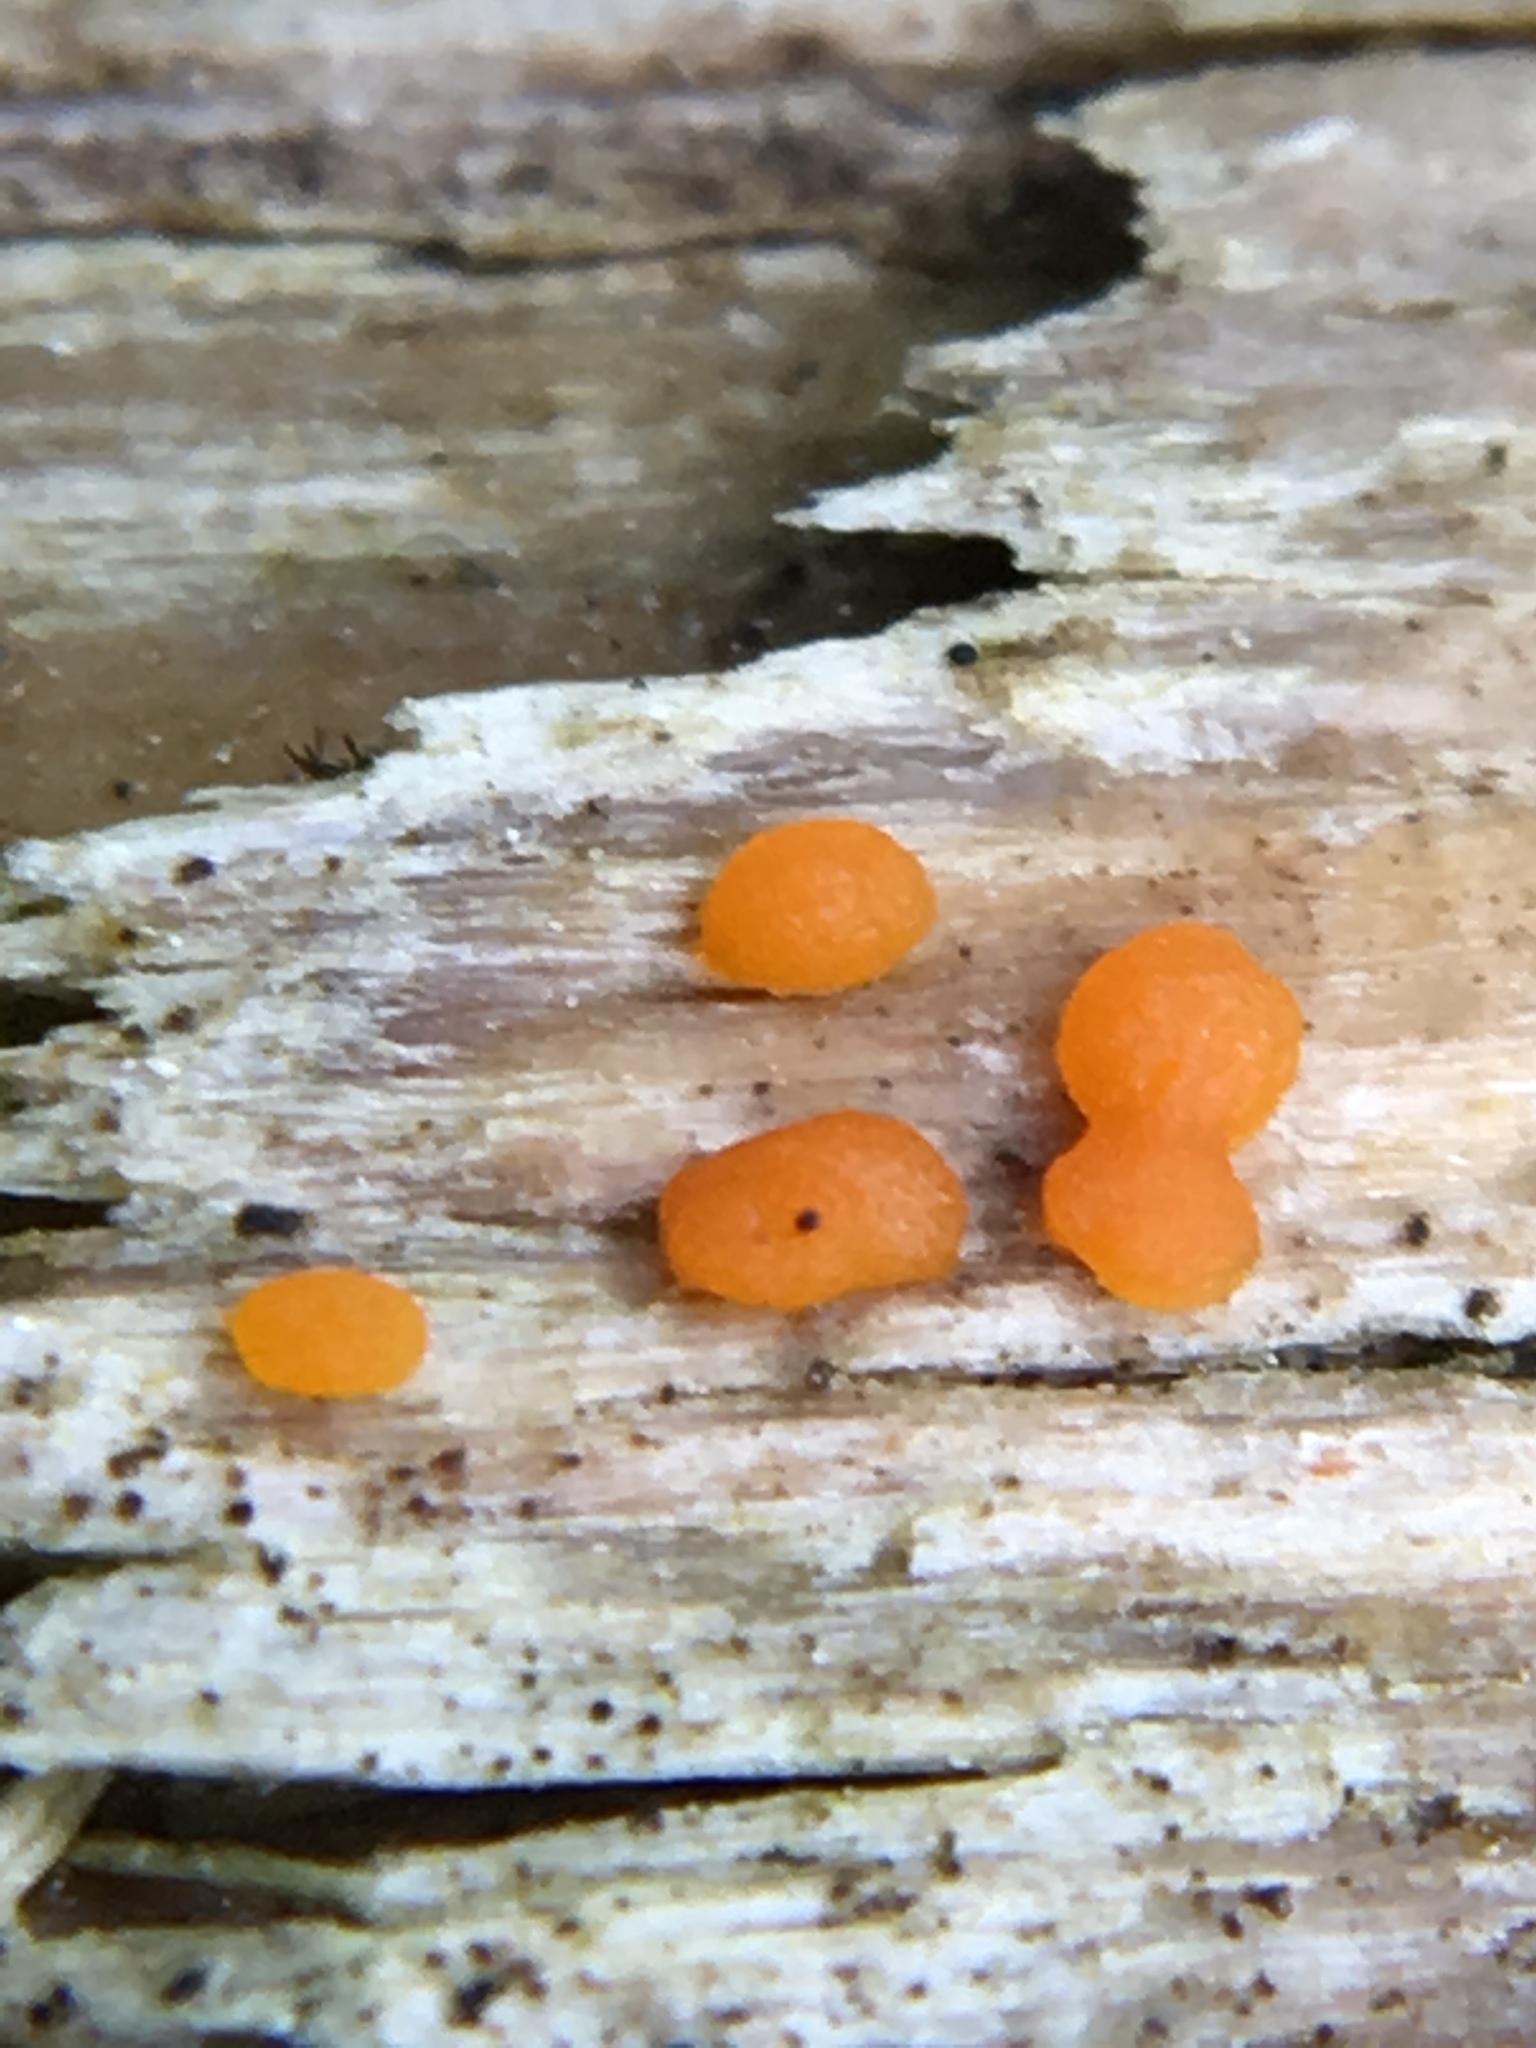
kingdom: Fungi
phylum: Basidiomycota
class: Dacrymycetes
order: Dacrymycetales
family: Dacrymycetaceae
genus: Dacrymyces
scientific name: Dacrymyces stillatus
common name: Common jelly spot
